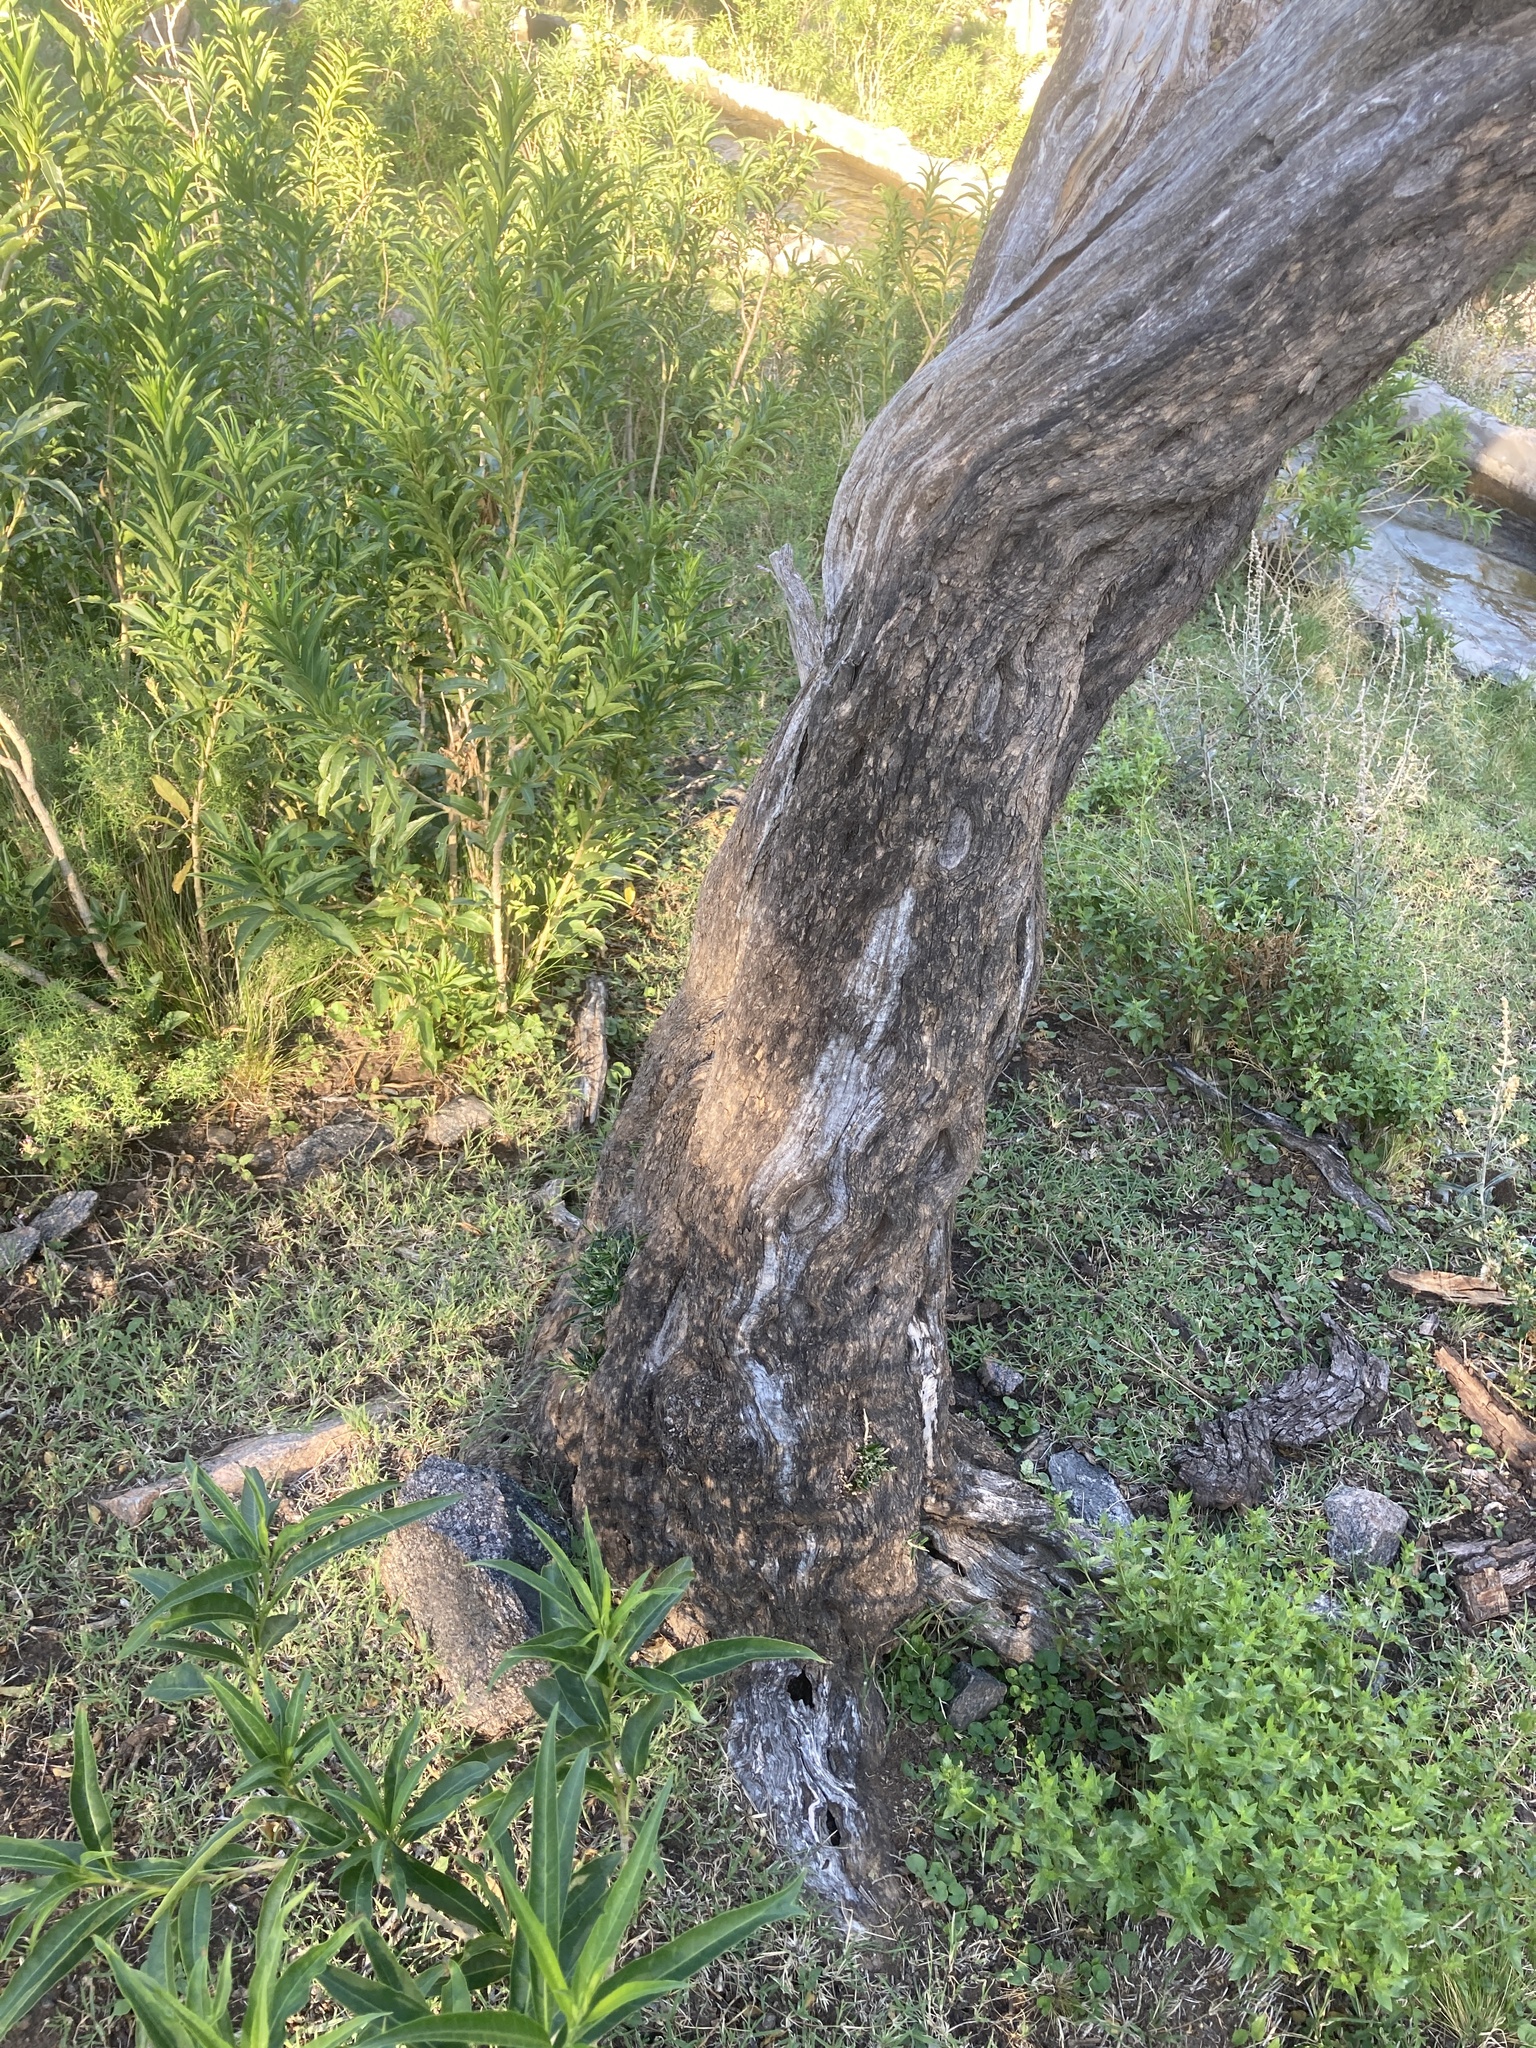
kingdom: Plantae
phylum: Tracheophyta
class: Magnoliopsida
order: Brassicales
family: Capparaceae
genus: Atamisquea
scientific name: Atamisquea emarginata
